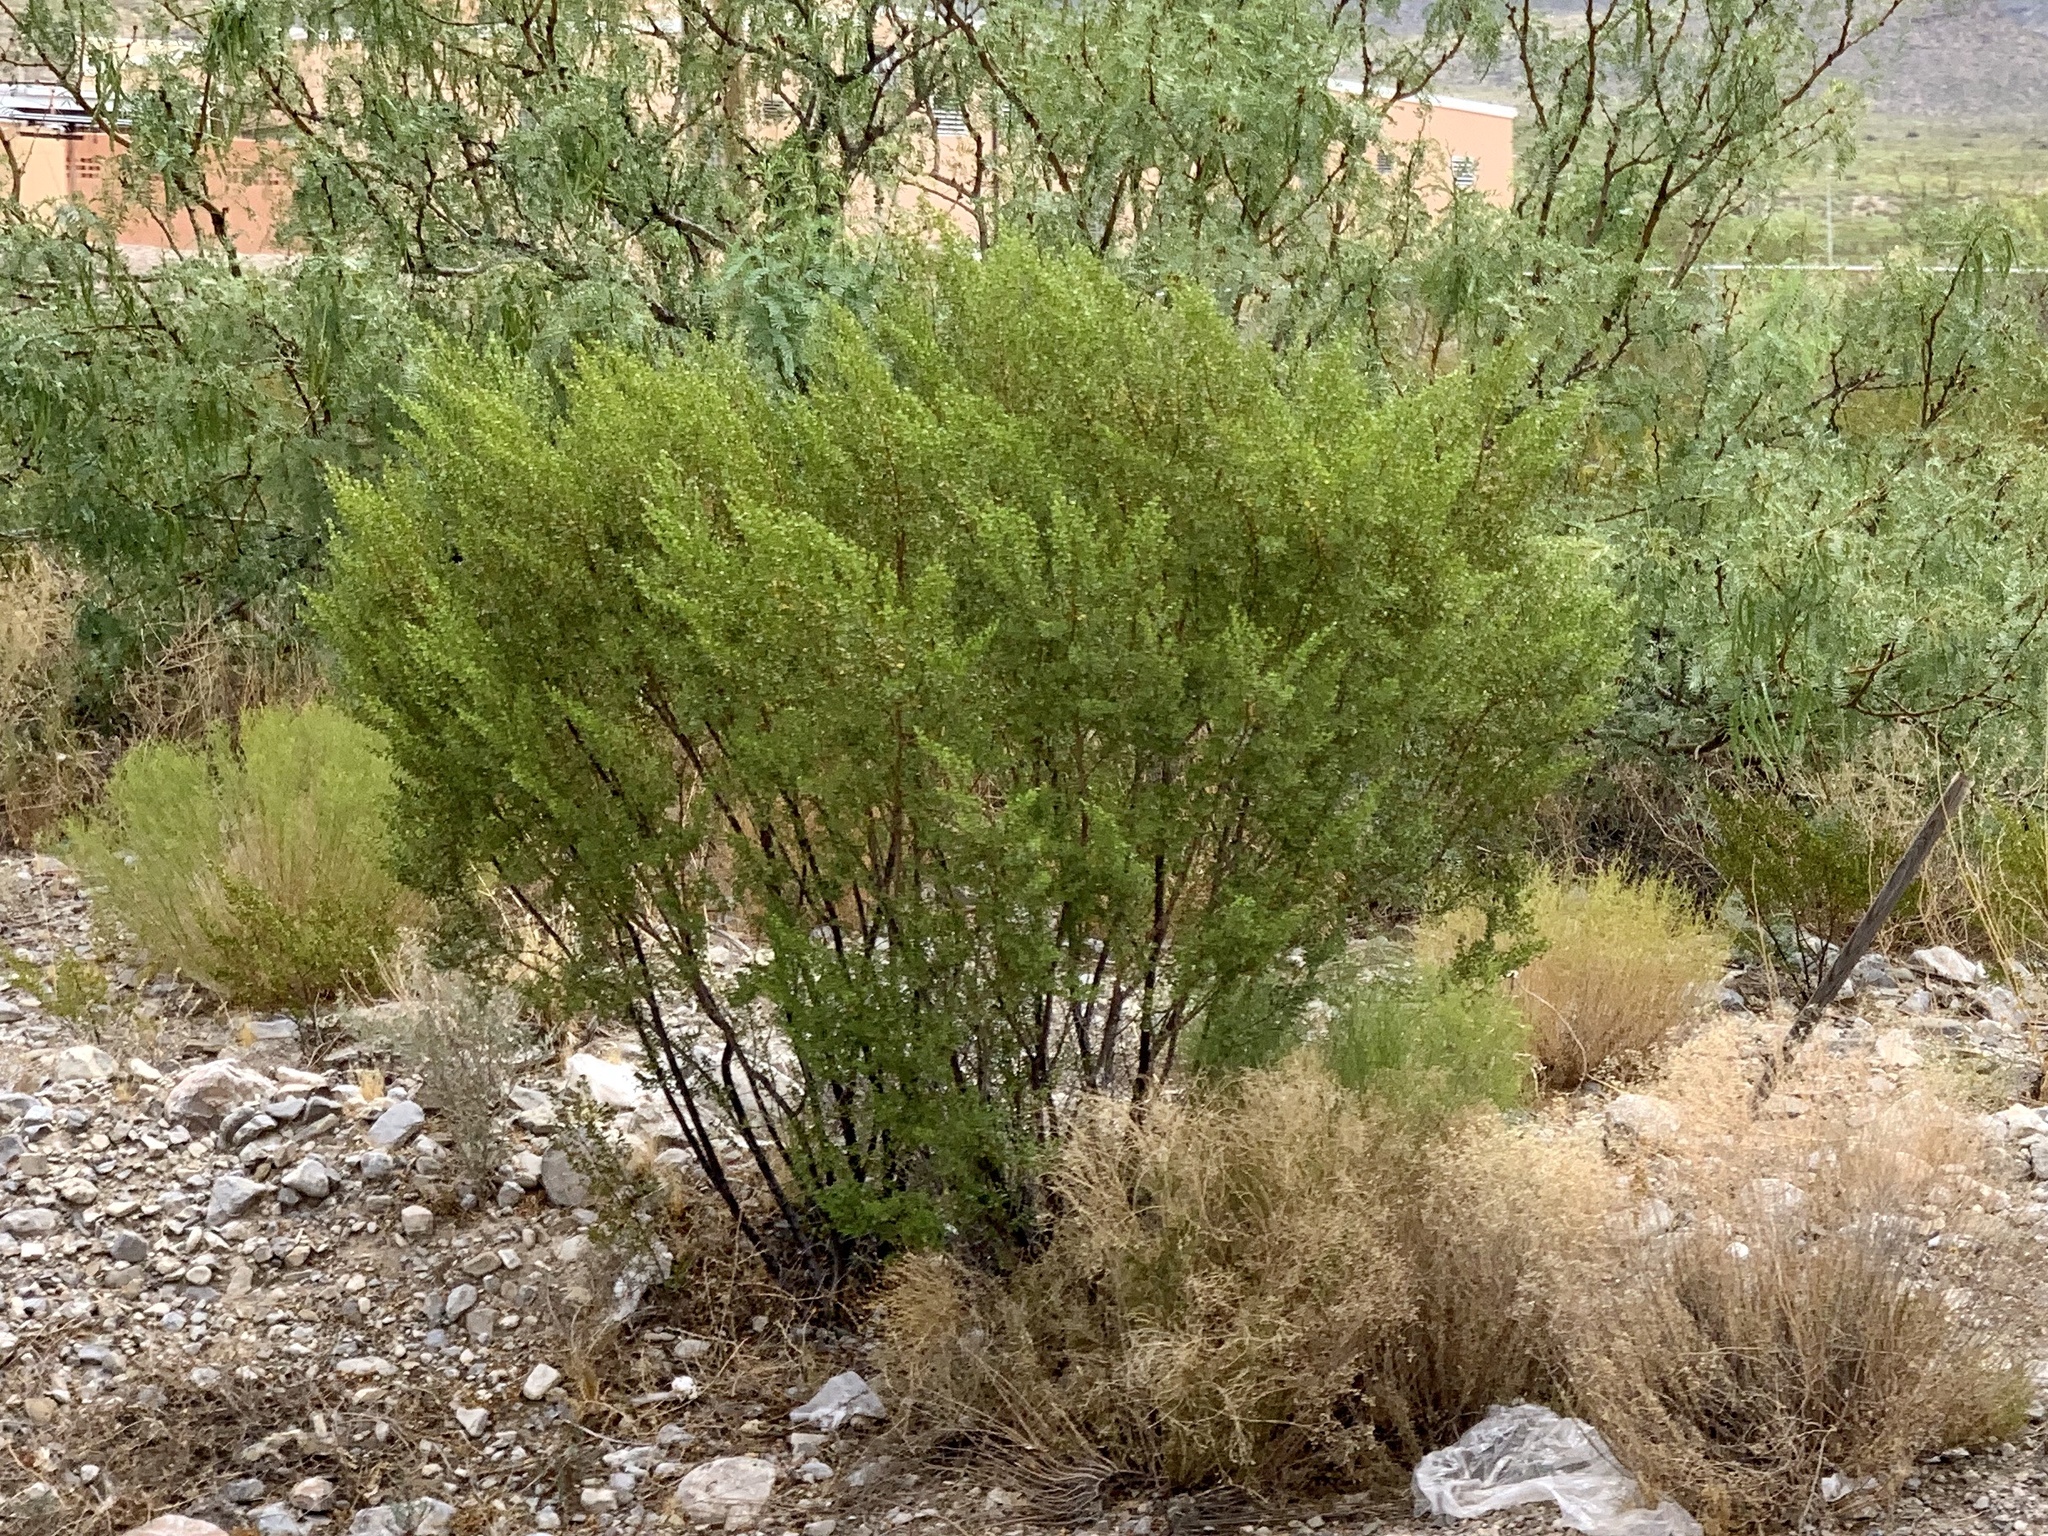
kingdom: Plantae
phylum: Tracheophyta
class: Magnoliopsida
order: Zygophyllales
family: Zygophyllaceae
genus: Larrea
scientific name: Larrea tridentata
